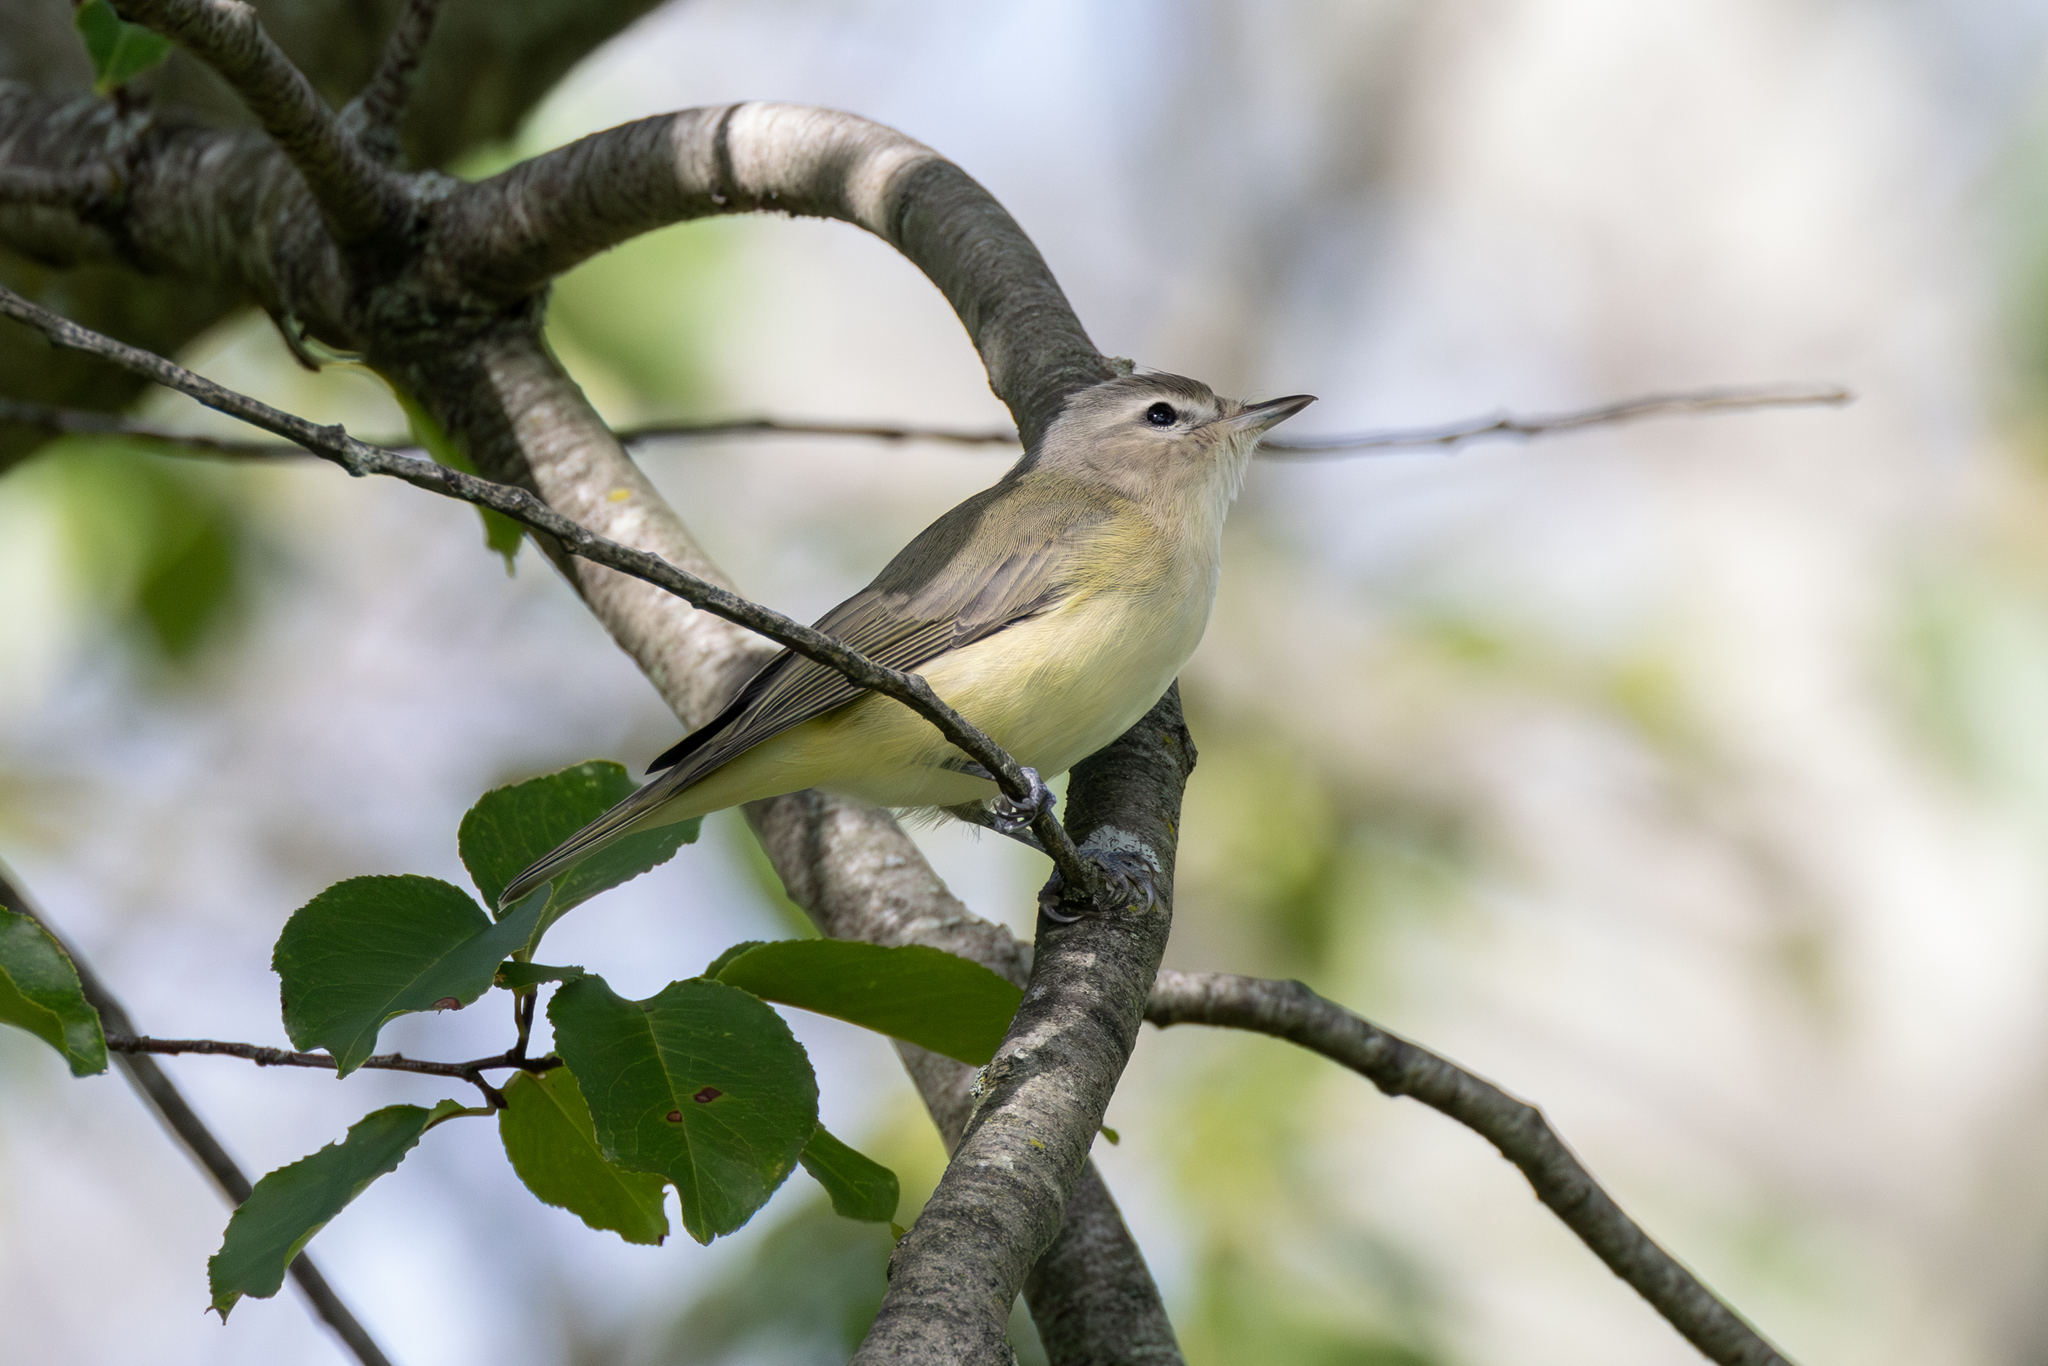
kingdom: Animalia
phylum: Chordata
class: Aves
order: Passeriformes
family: Vireonidae
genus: Vireo
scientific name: Vireo gilvus
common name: Warbling vireo
